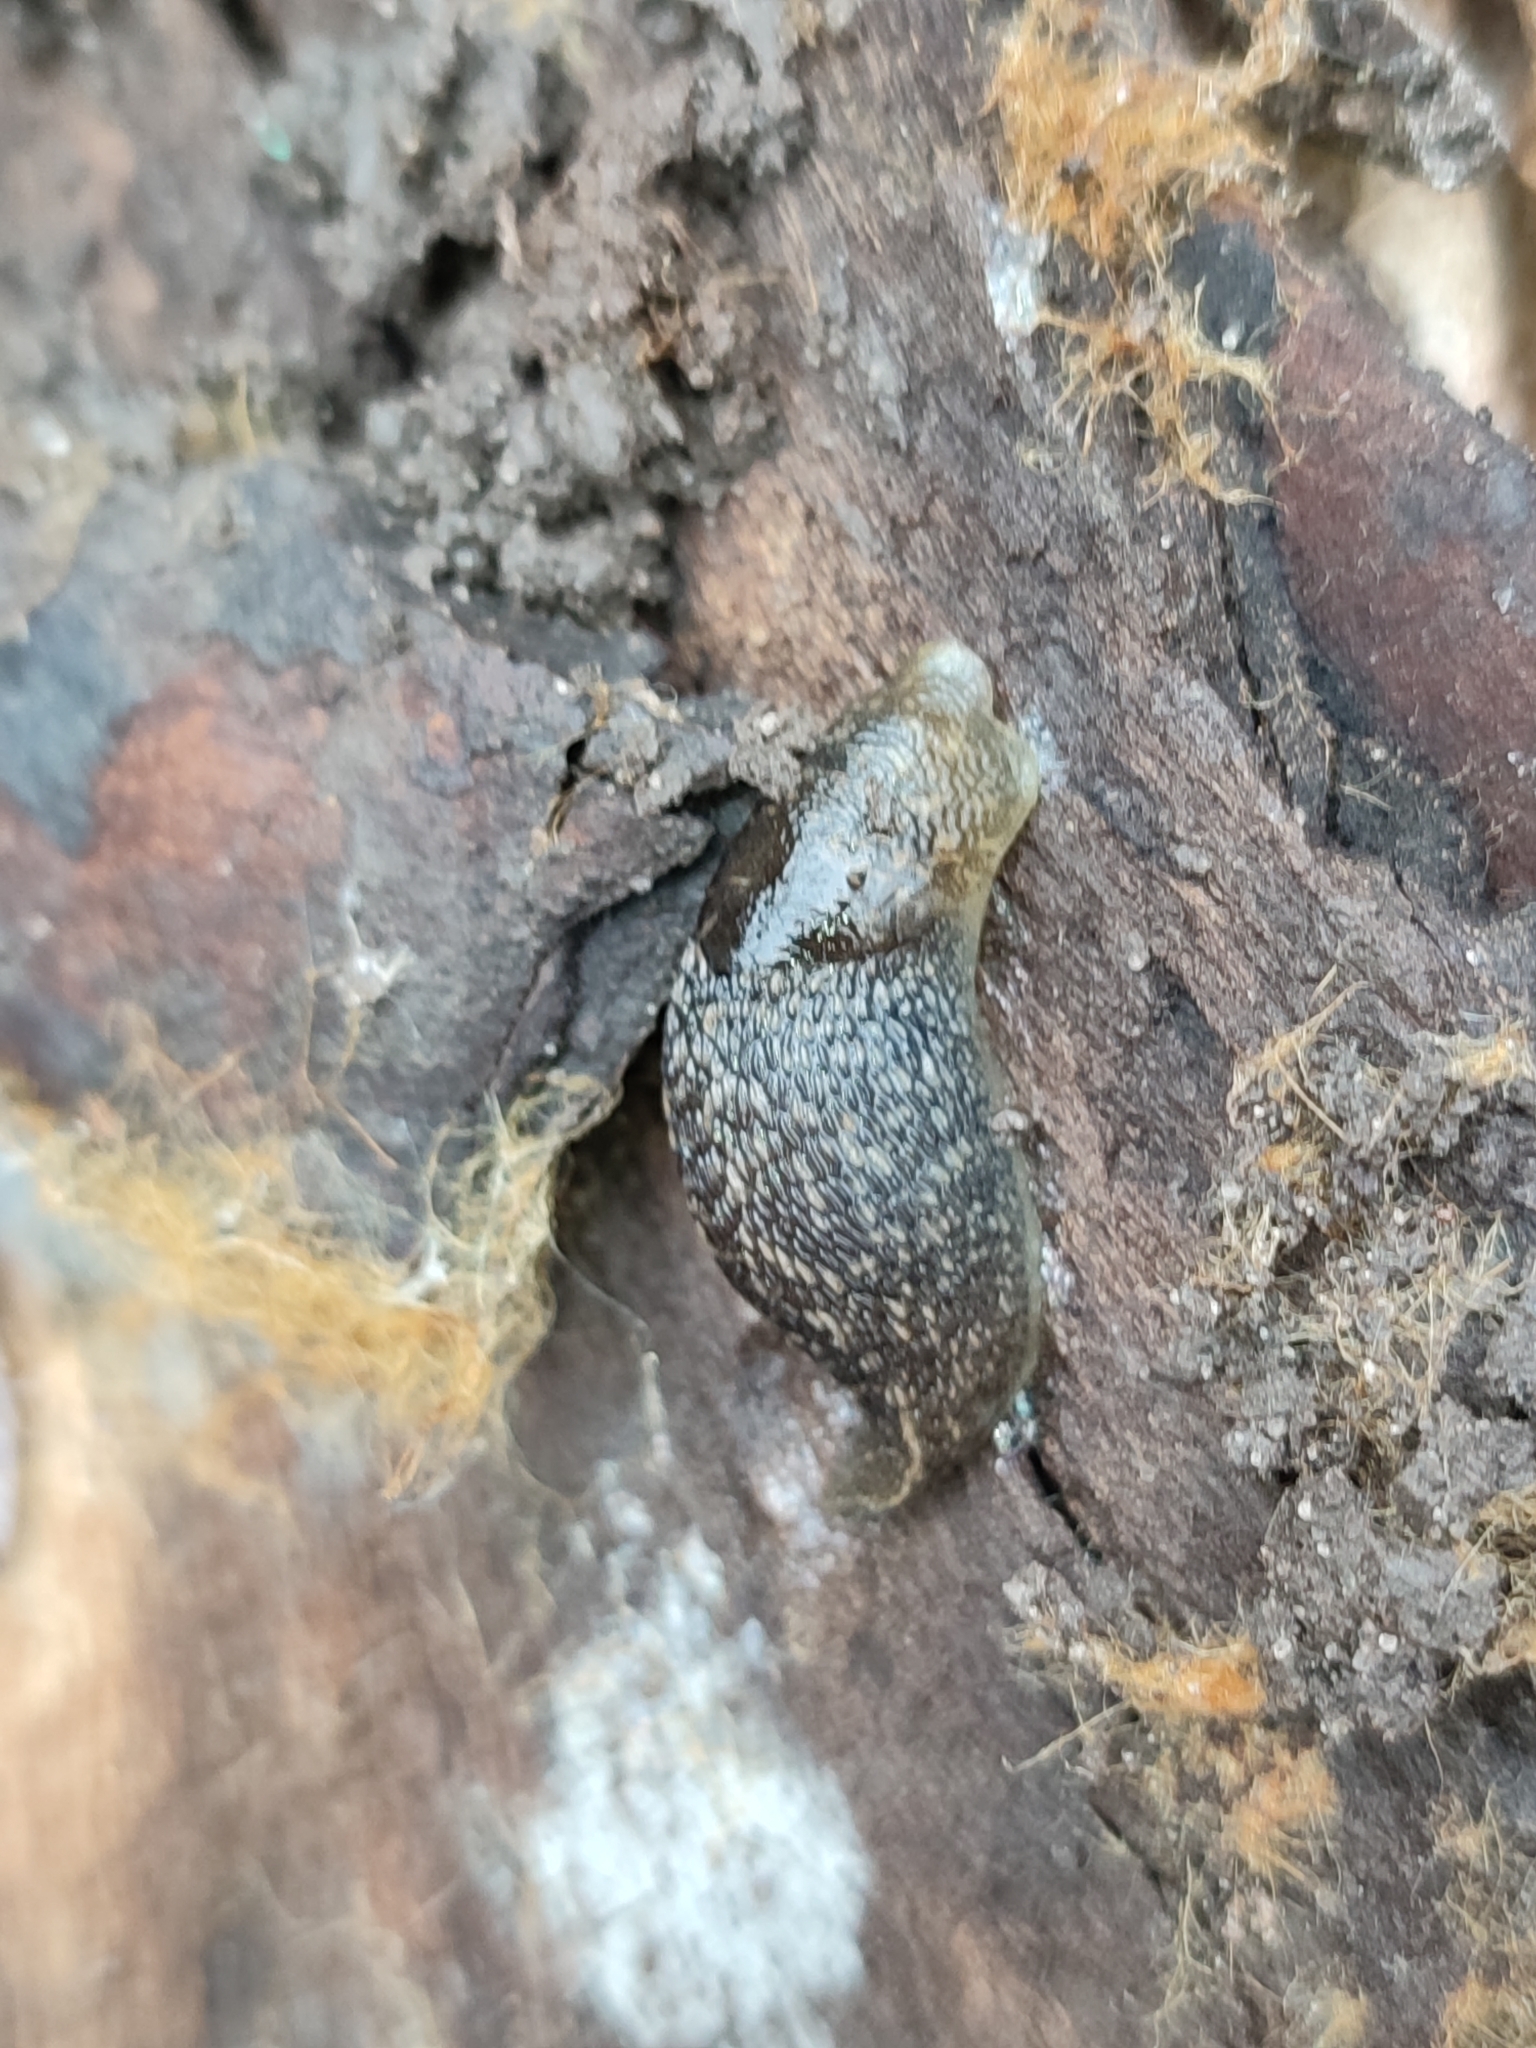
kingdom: Animalia
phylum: Mollusca
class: Gastropoda
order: Stylommatophora
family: Limacidae
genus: Limacus
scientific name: Limacus
